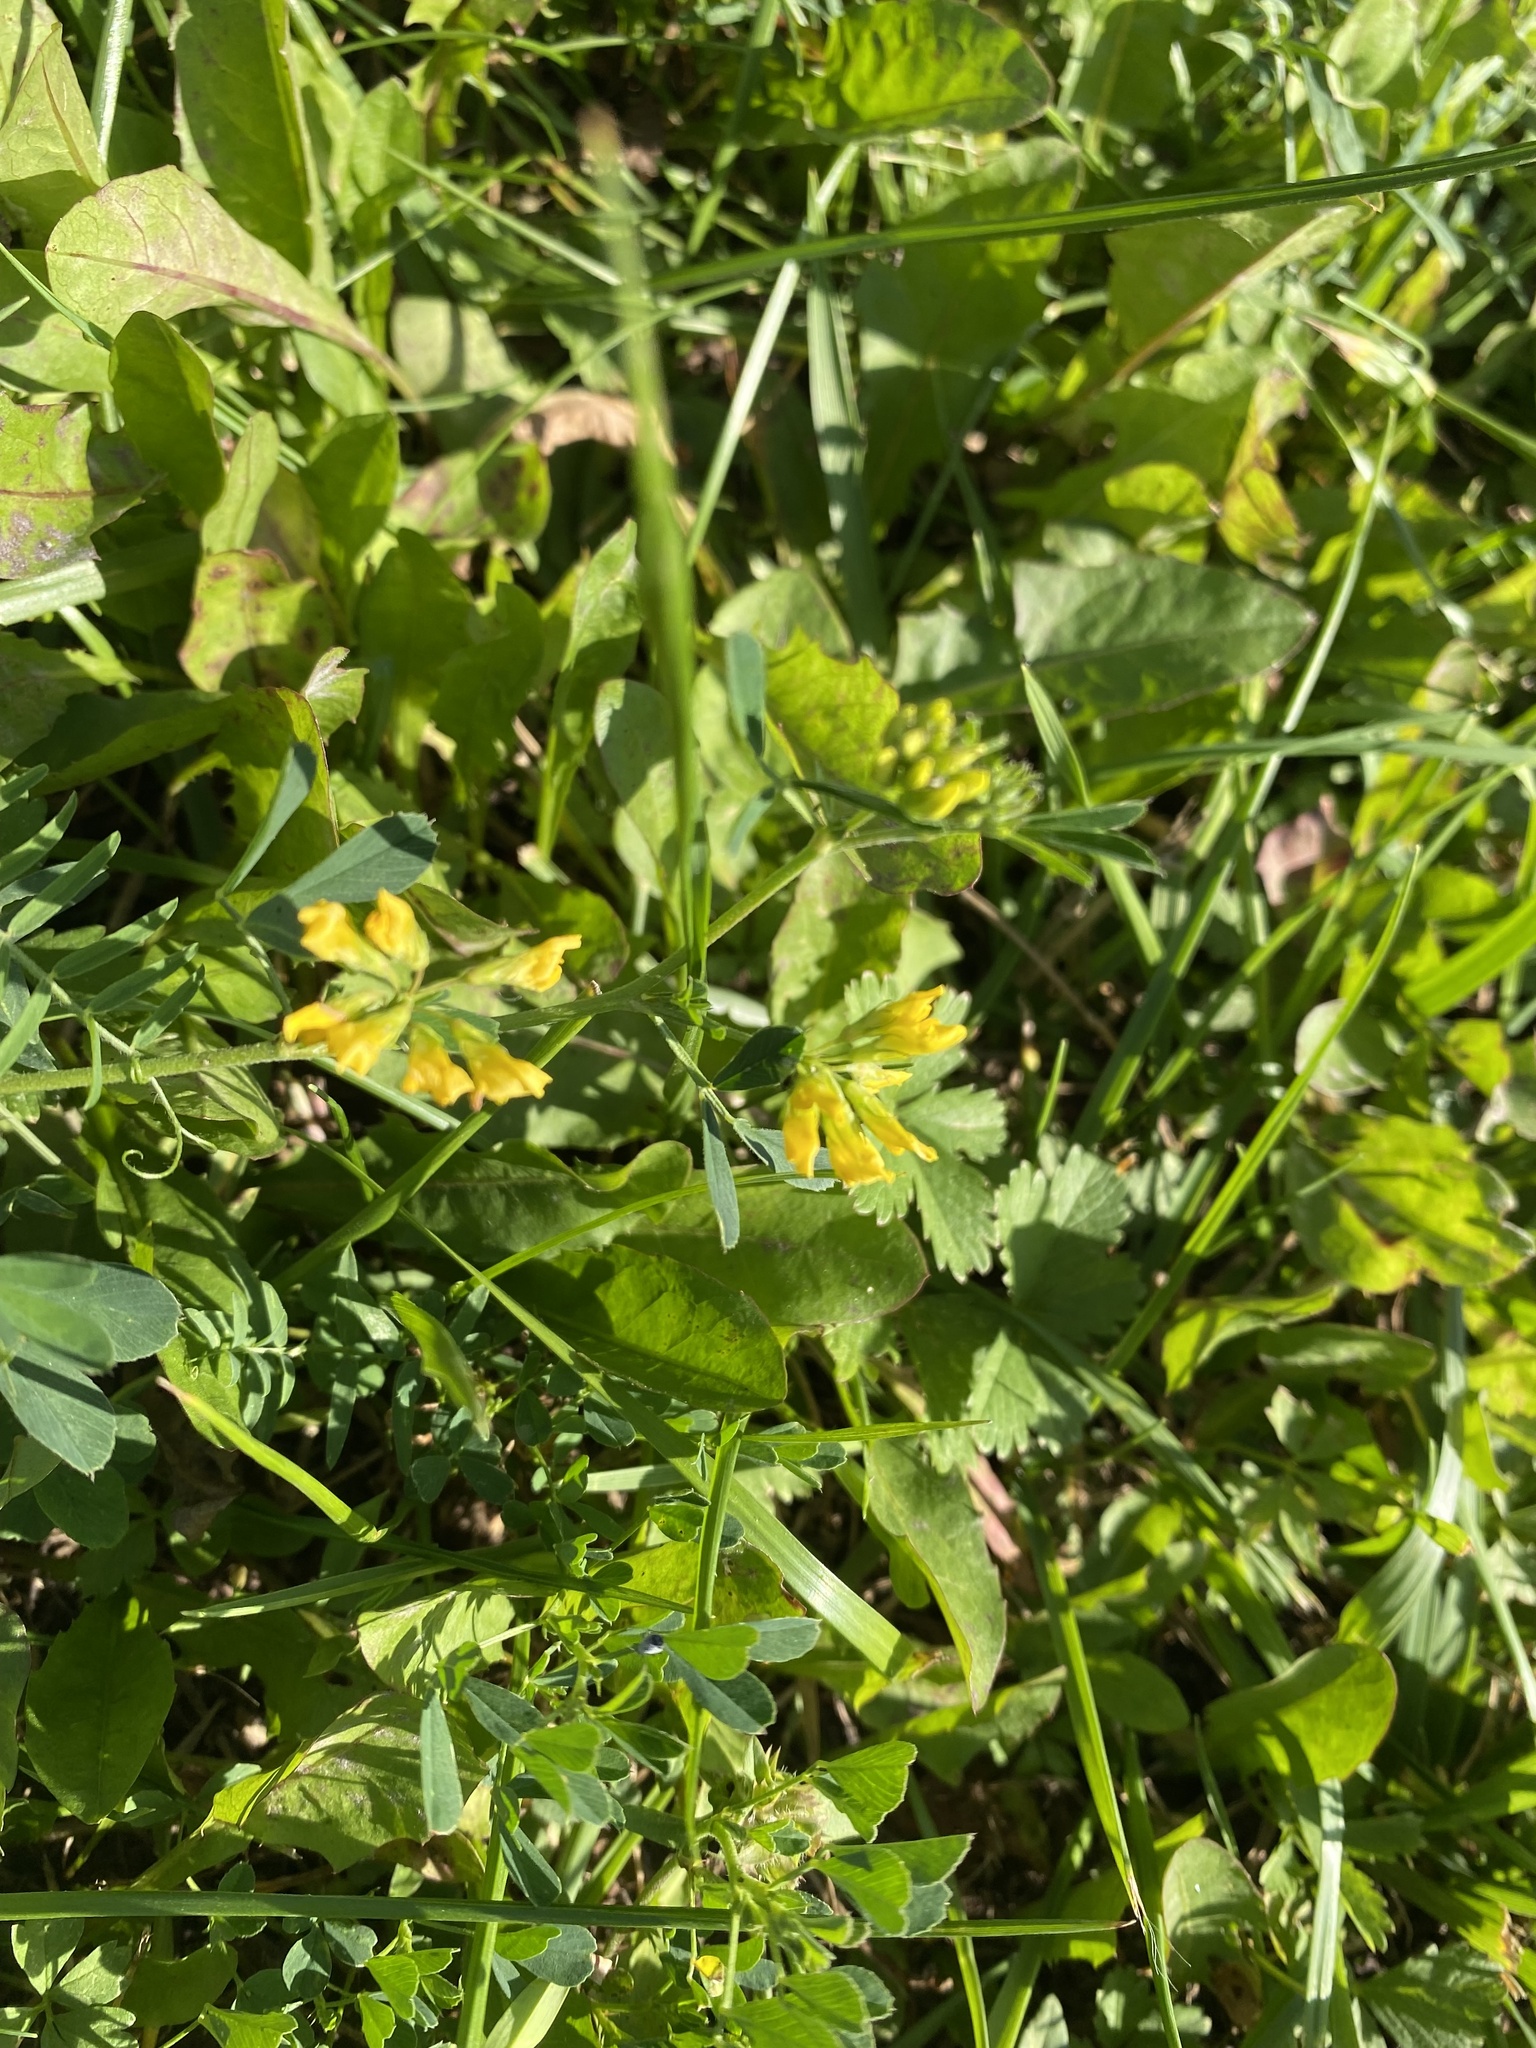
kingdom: Plantae
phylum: Tracheophyta
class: Magnoliopsida
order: Fabales
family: Fabaceae
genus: Medicago
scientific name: Medicago falcata
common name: Sickle medick
